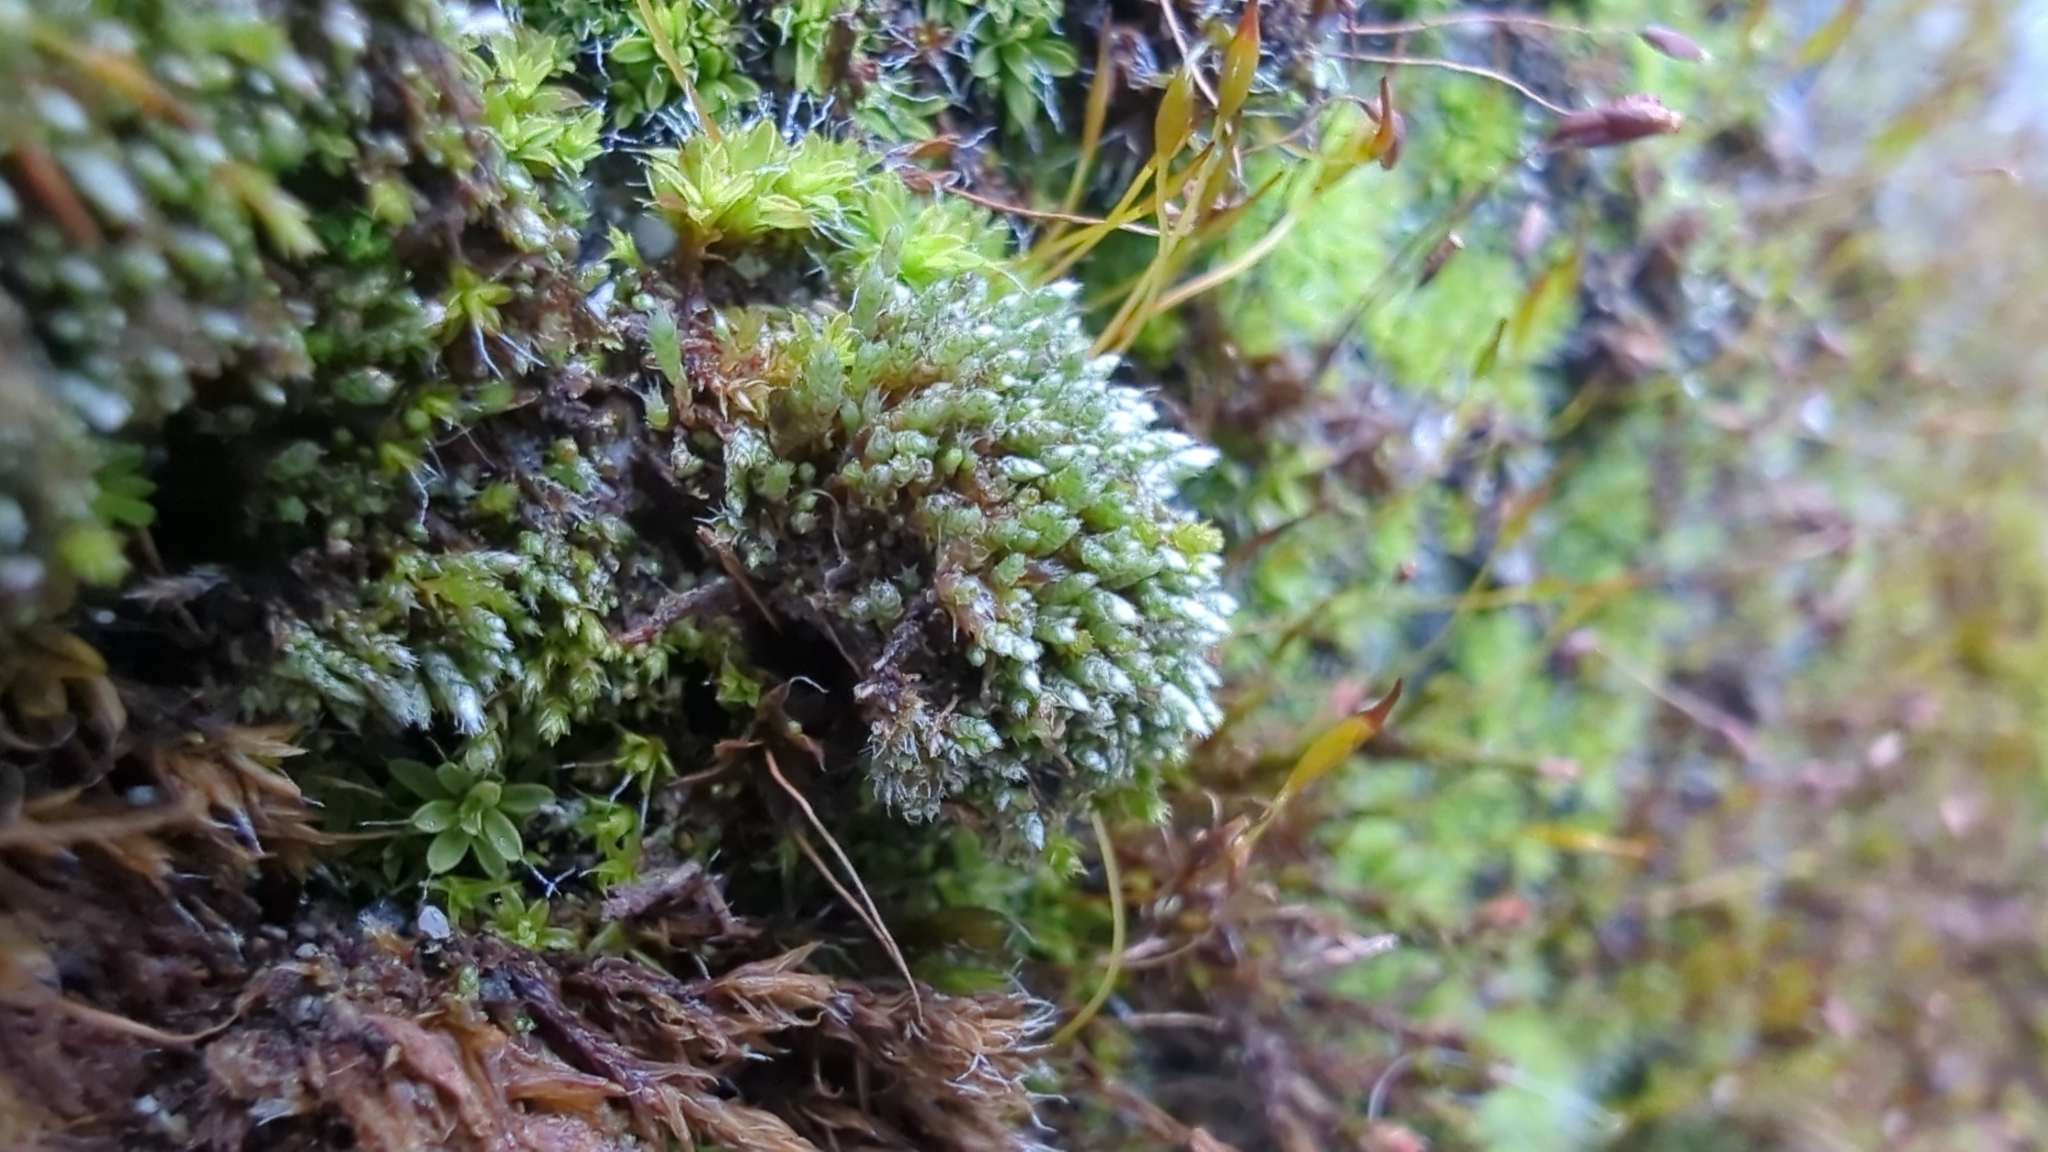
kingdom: Plantae
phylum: Bryophyta
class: Bryopsida
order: Bryales
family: Bryaceae
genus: Bryum
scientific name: Bryum argenteum
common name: Silver-moss
